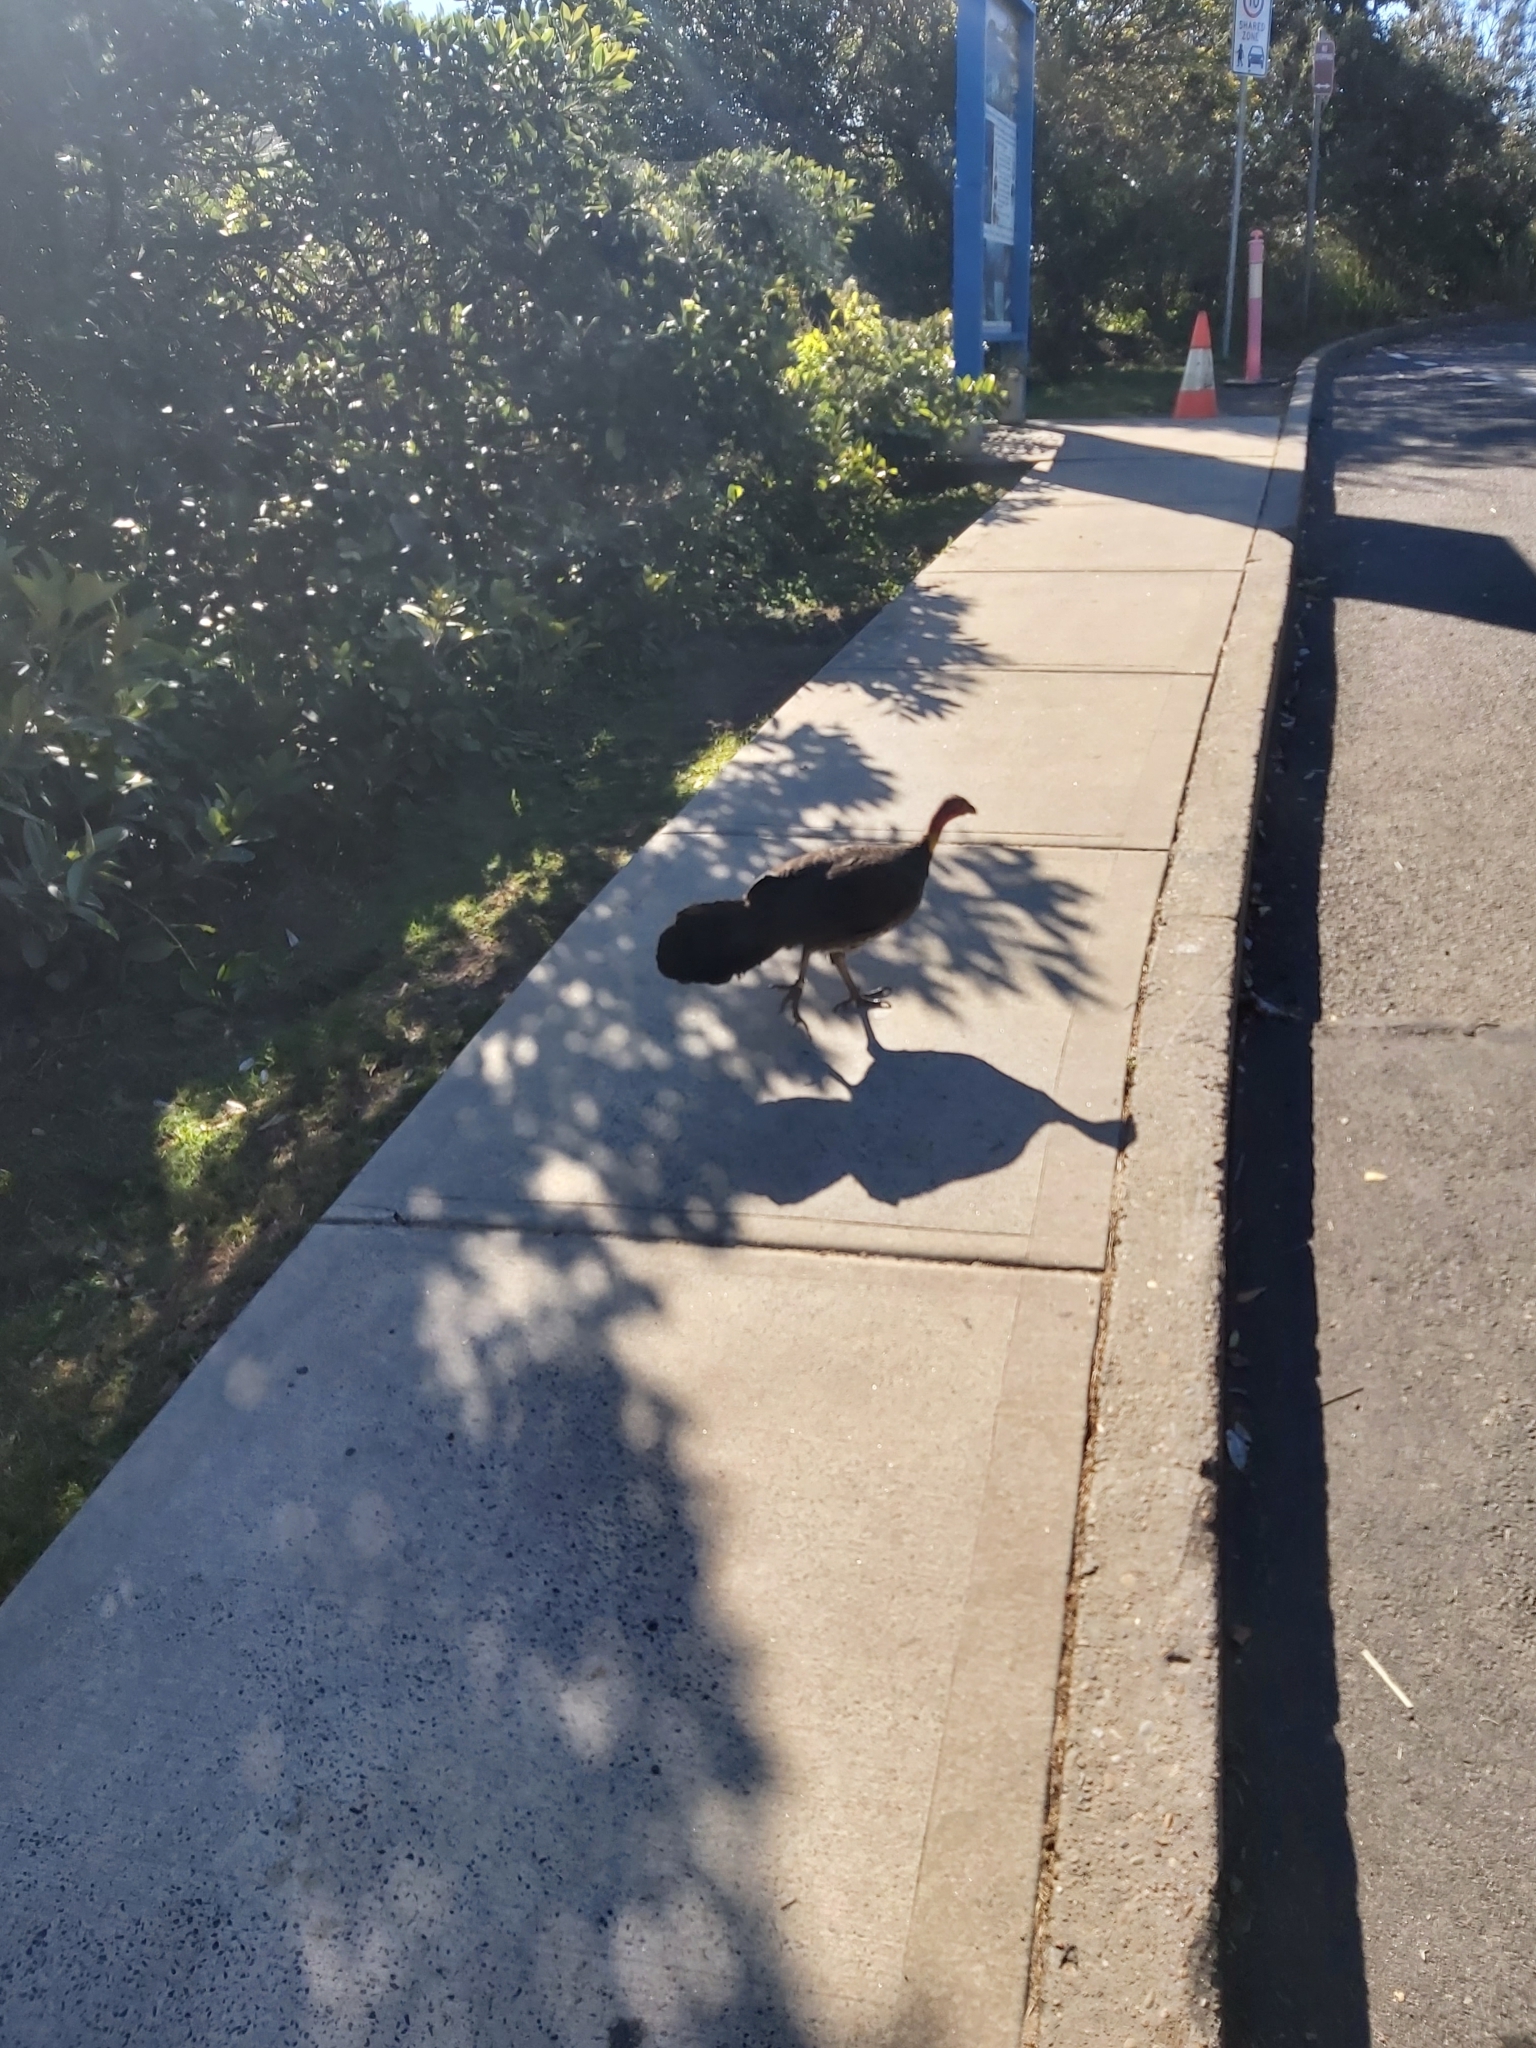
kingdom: Animalia
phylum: Chordata
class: Aves
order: Galliformes
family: Megapodiidae
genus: Alectura
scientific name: Alectura lathami
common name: Australian brushturkey
